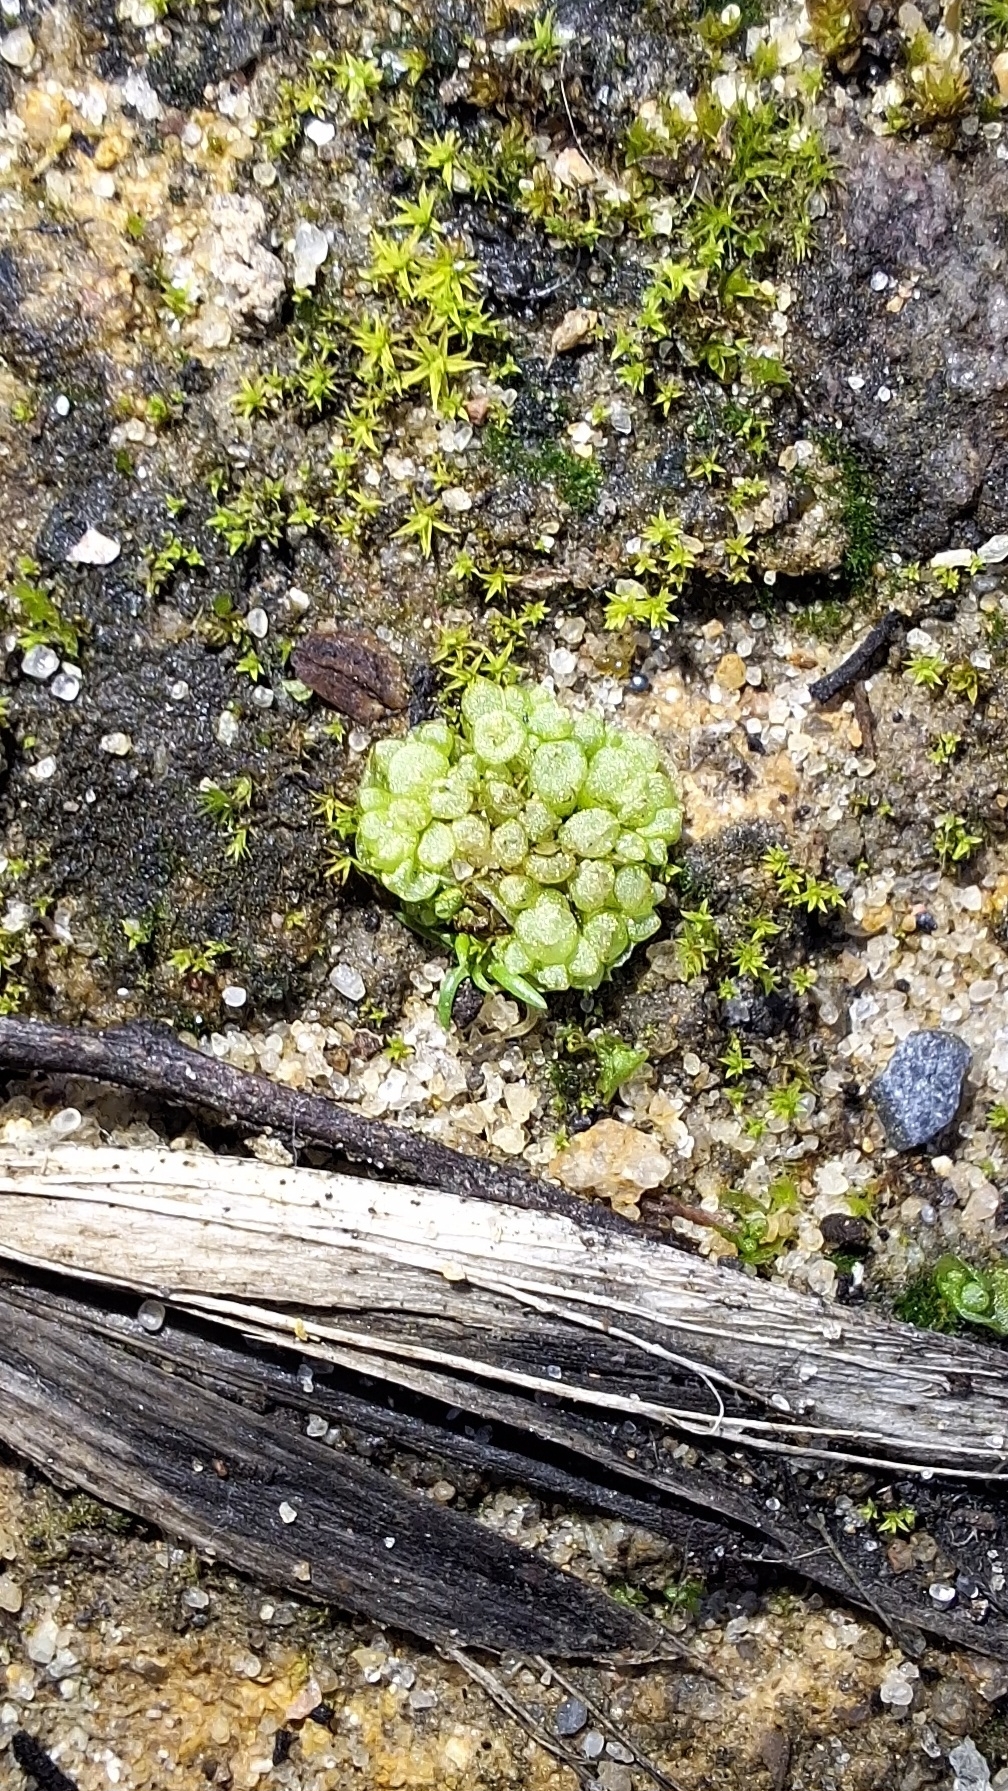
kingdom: Plantae
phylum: Marchantiophyta
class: Marchantiopsida
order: Sphaerocarpales
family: Sphaerocarpaceae
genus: Sphaerocarpos
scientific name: Sphaerocarpos texanus
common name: Texas balloonwort
